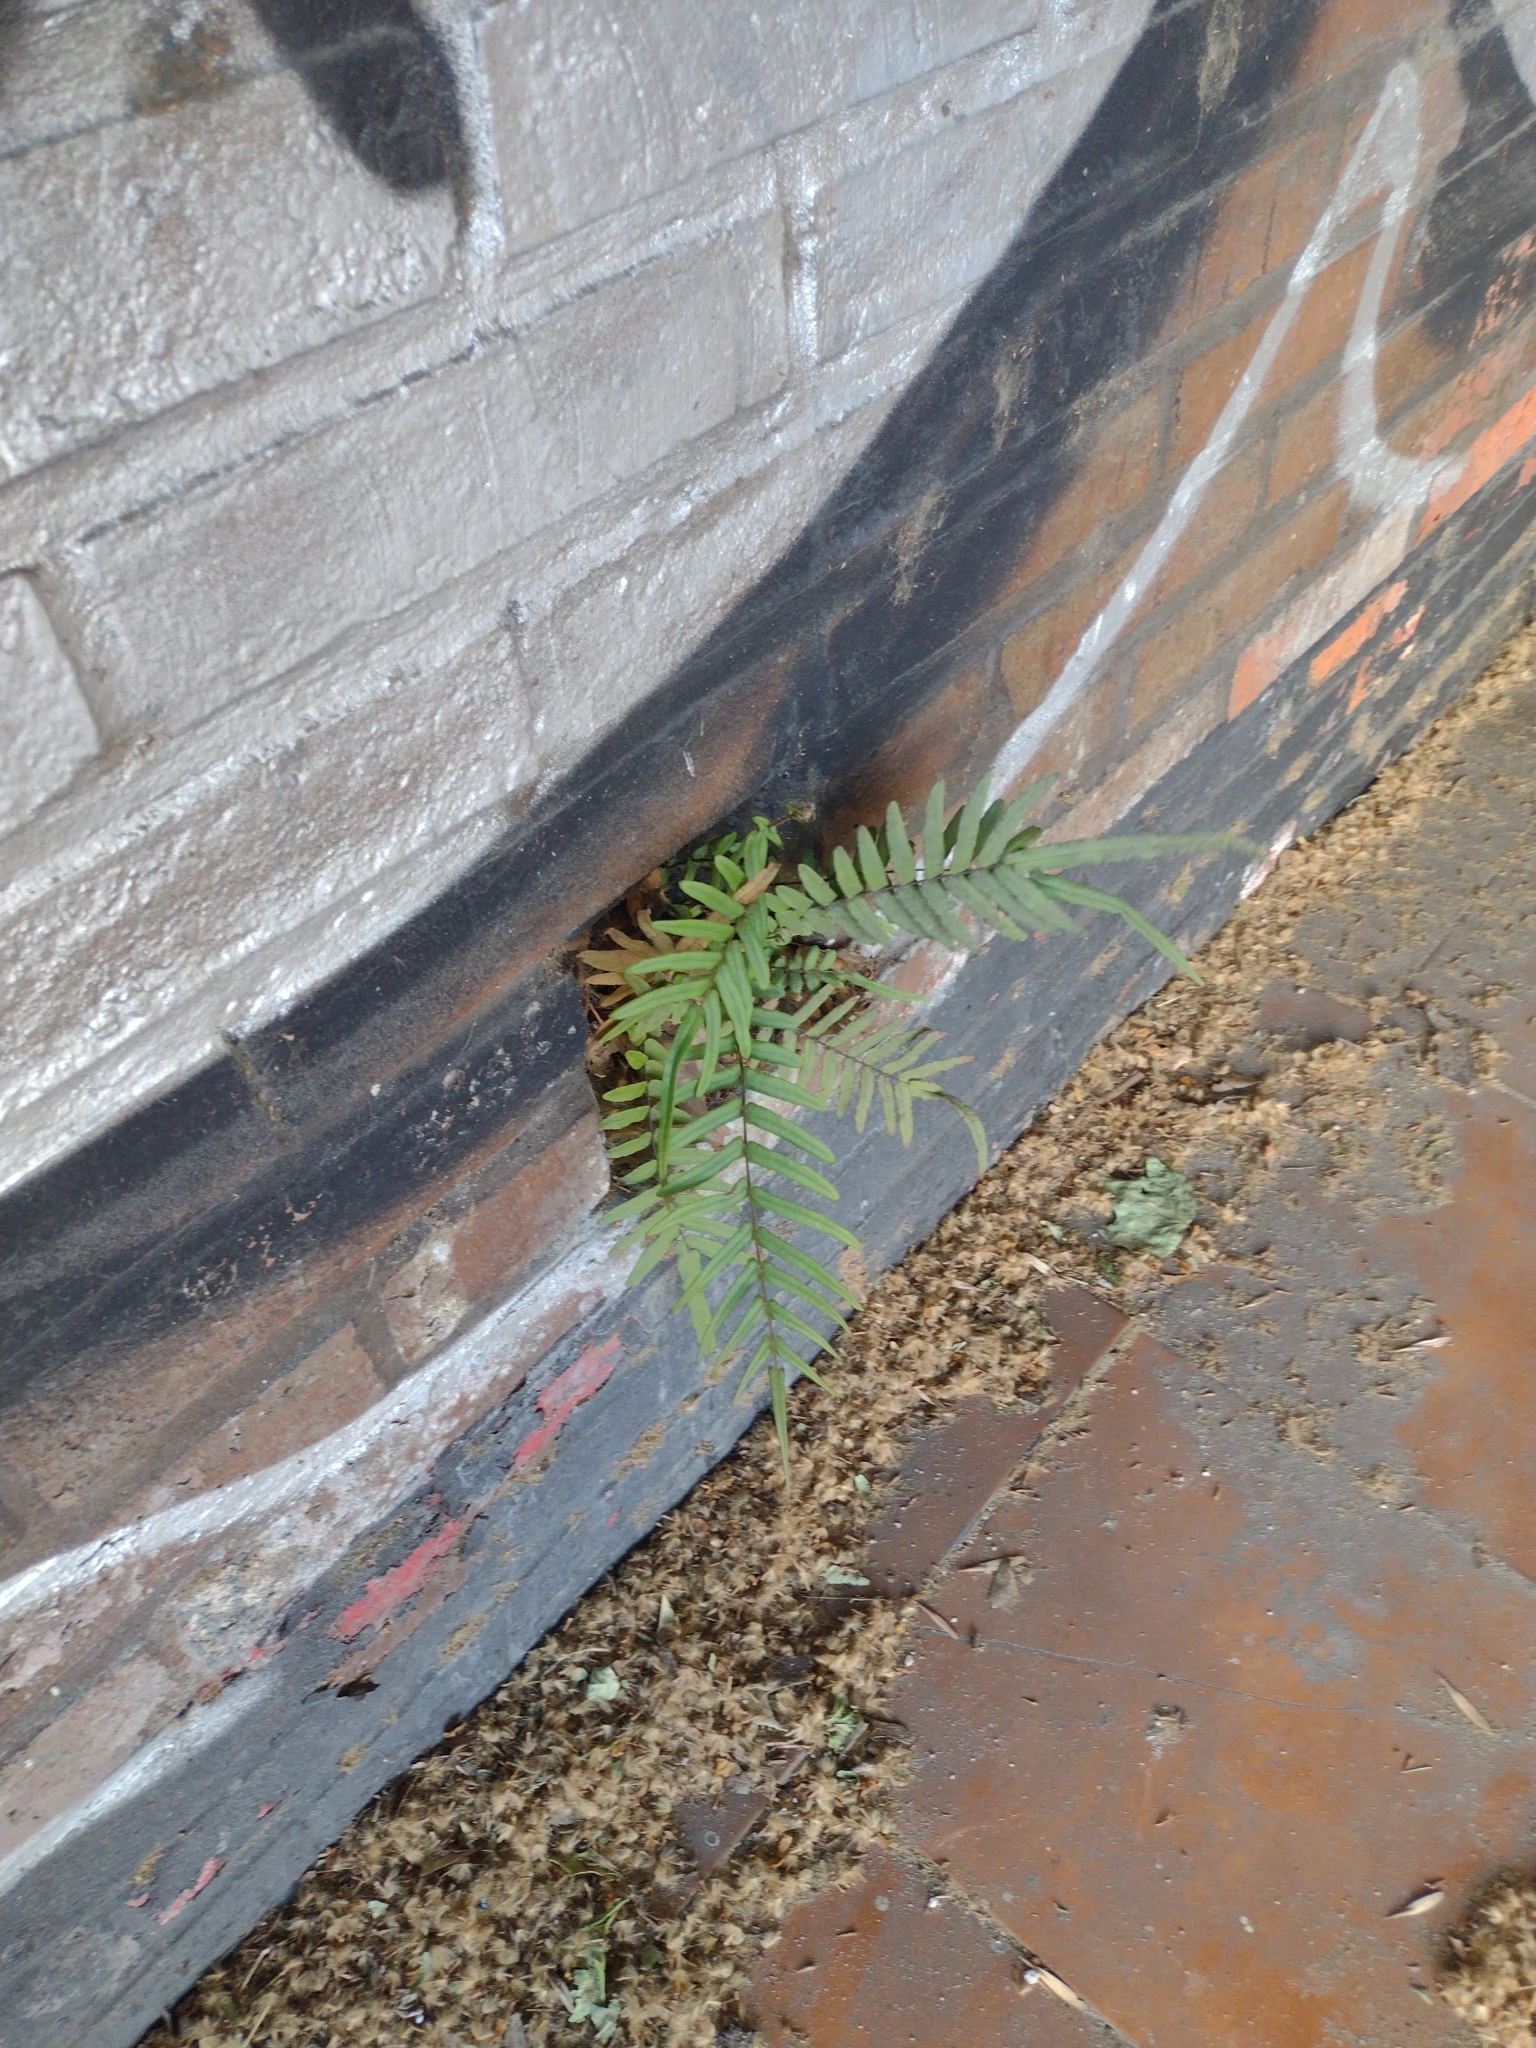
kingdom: Plantae
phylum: Tracheophyta
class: Polypodiopsida
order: Polypodiales
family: Pteridaceae
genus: Pteris
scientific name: Pteris vittata
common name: Ladder brake
